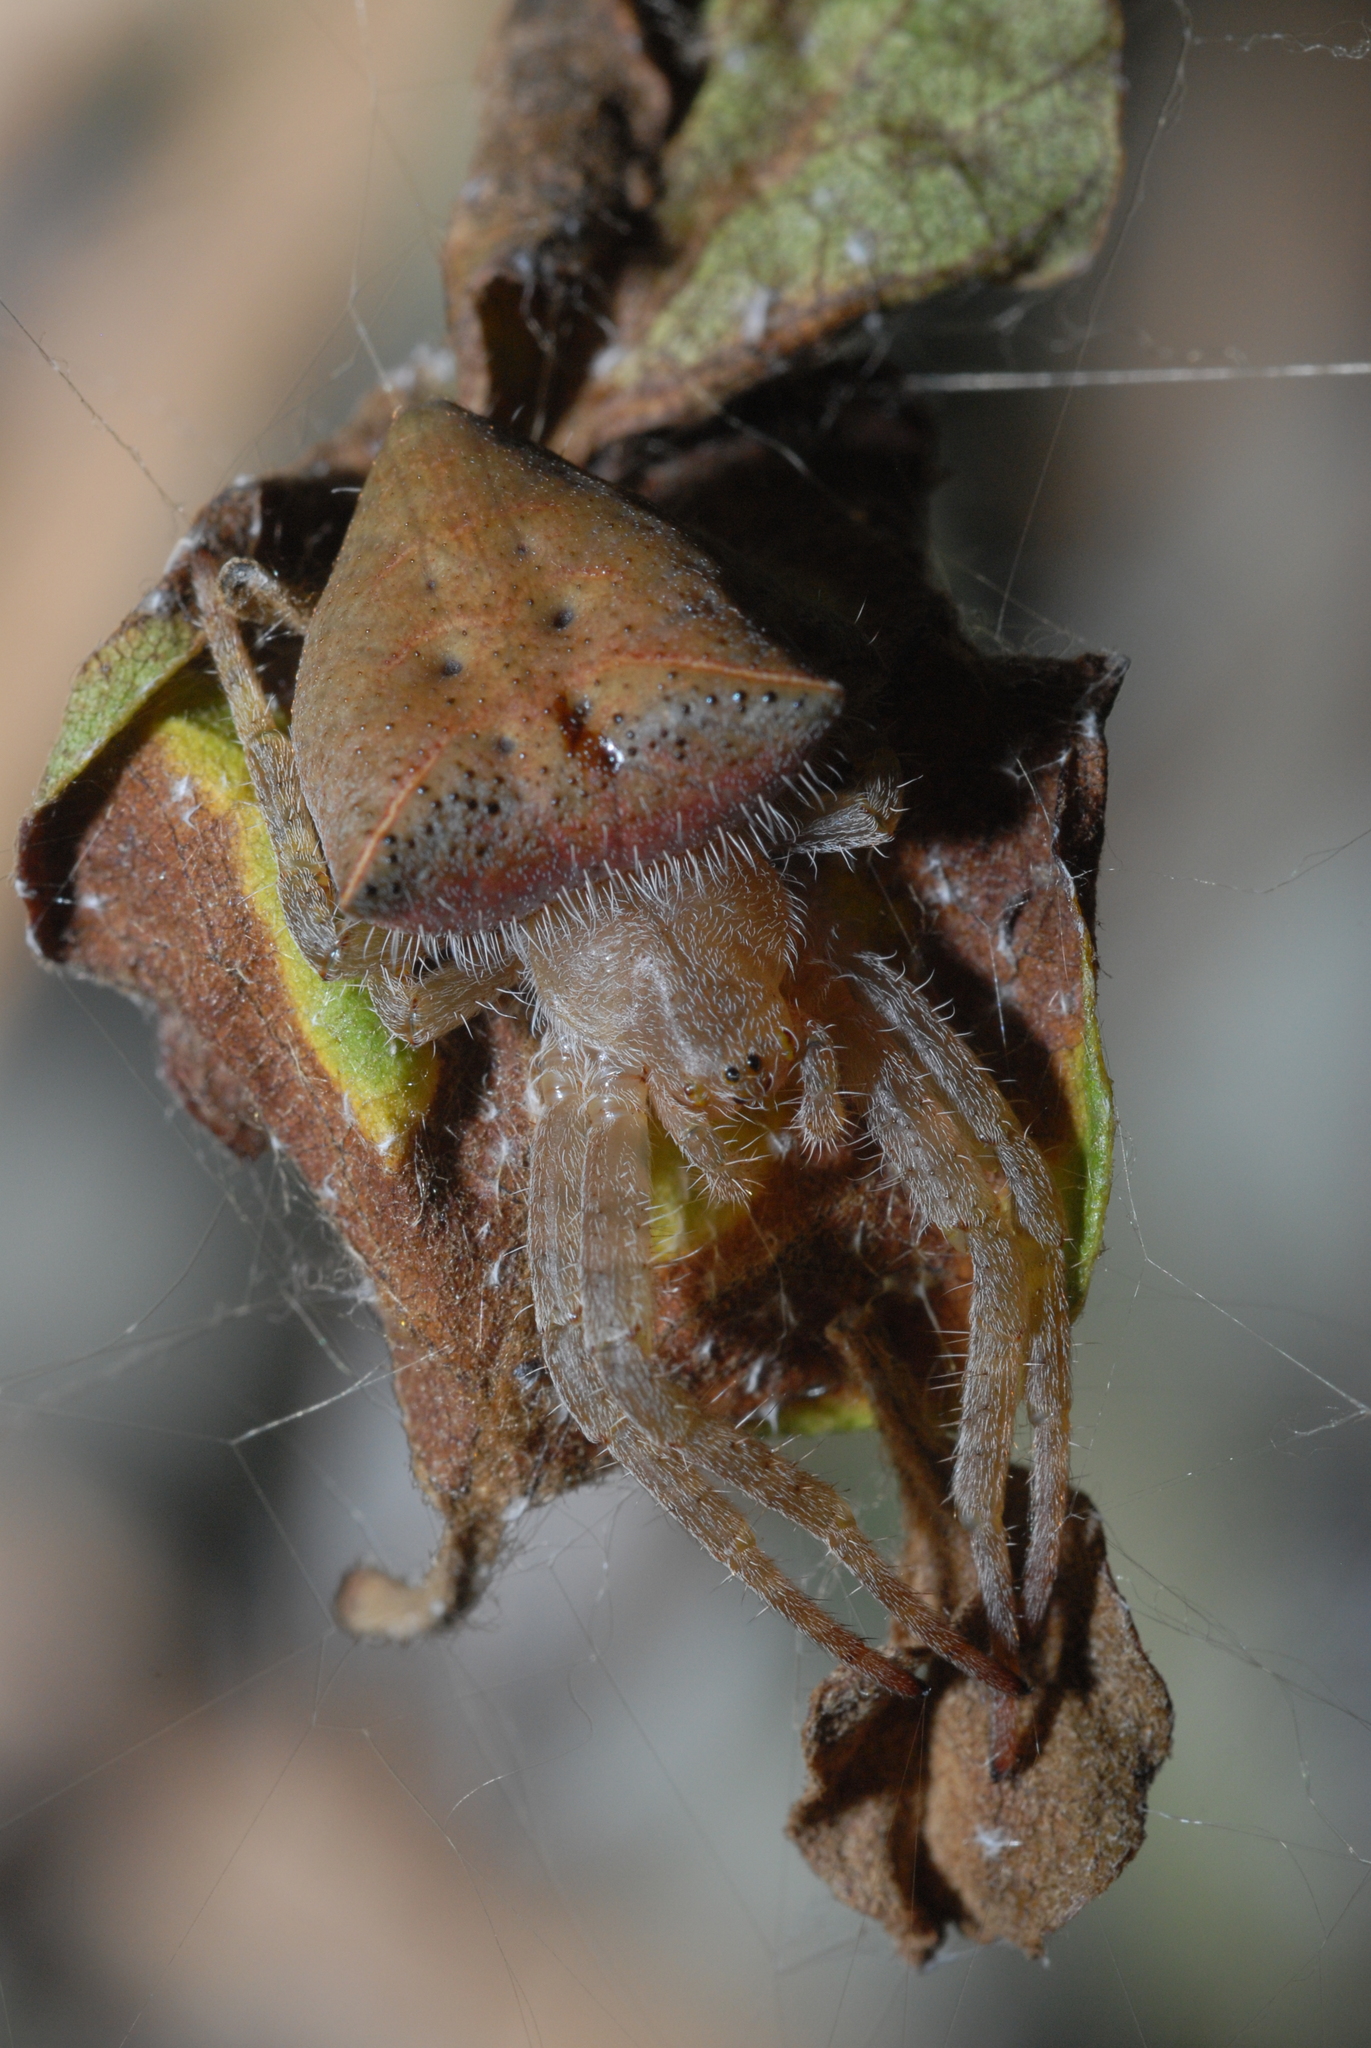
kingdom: Animalia
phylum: Arthropoda
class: Arachnida
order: Araneae
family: Araneidae
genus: Cyrtophora
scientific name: Cyrtophora unicolor
